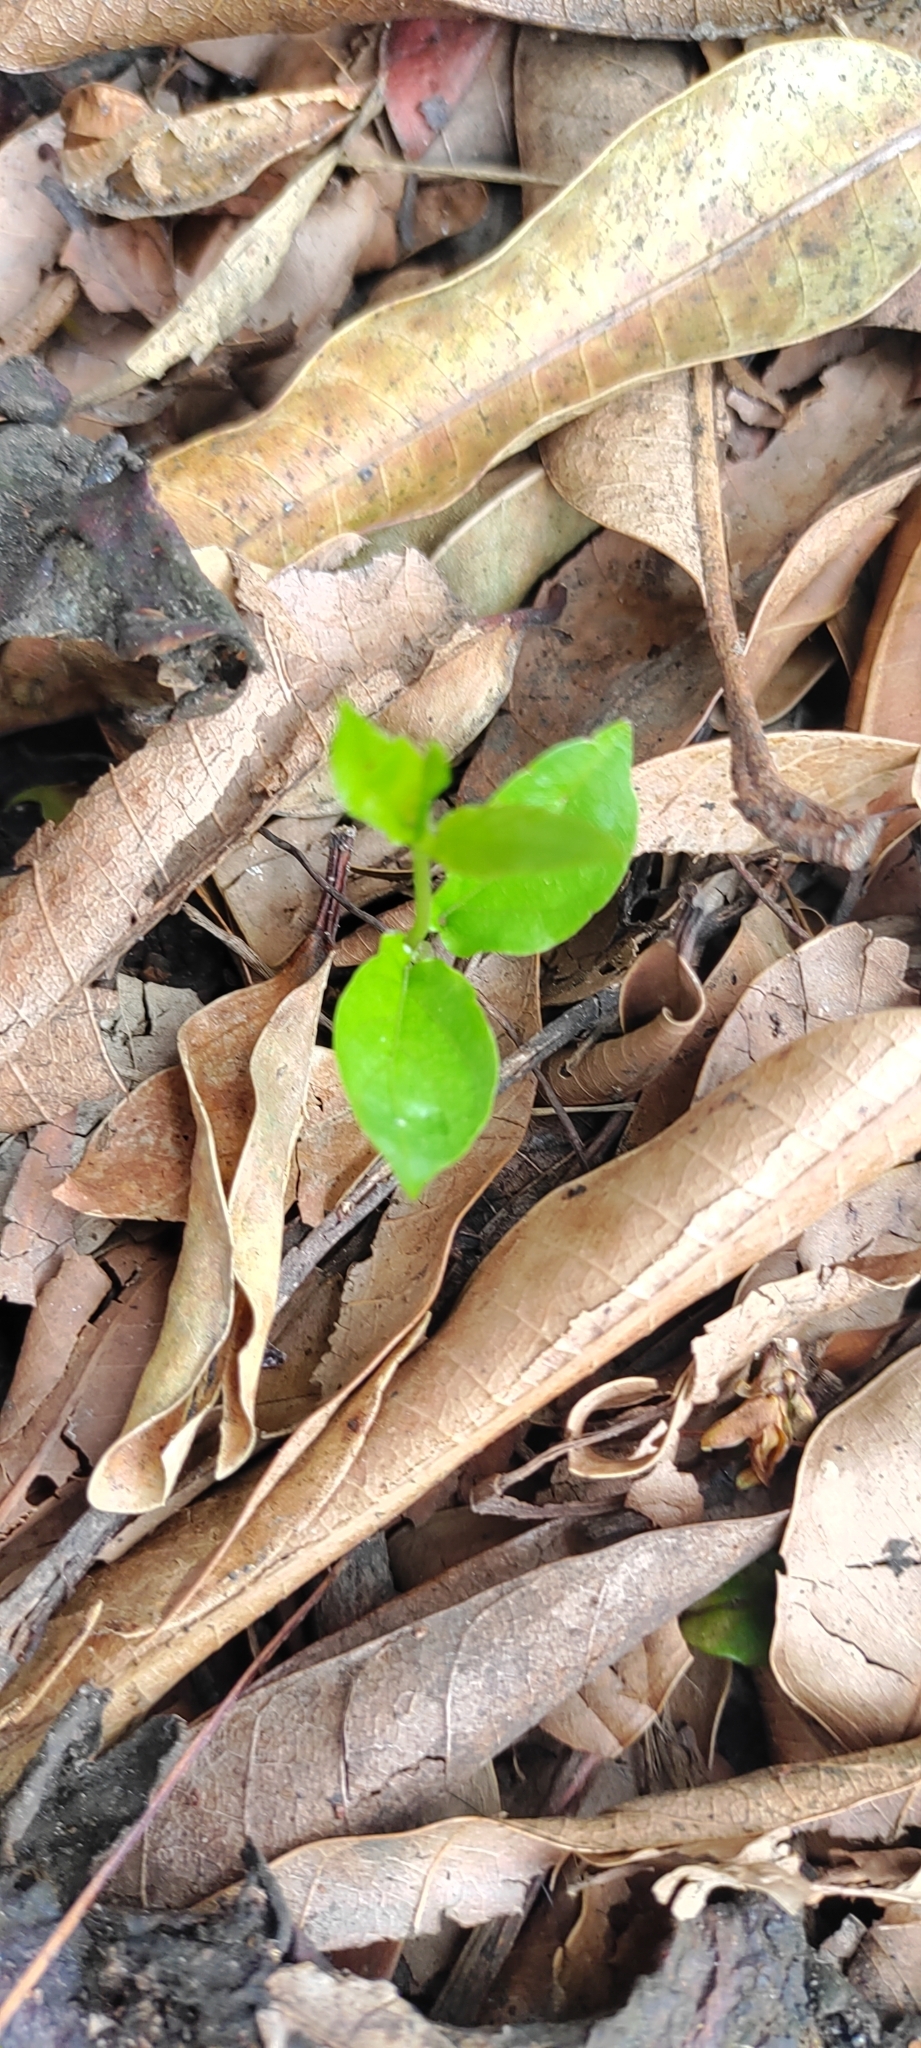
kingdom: Plantae
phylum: Tracheophyta
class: Magnoliopsida
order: Caryophyllales
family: Basellaceae
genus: Anredera
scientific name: Anredera cordifolia
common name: Heartleaf madeiravine
